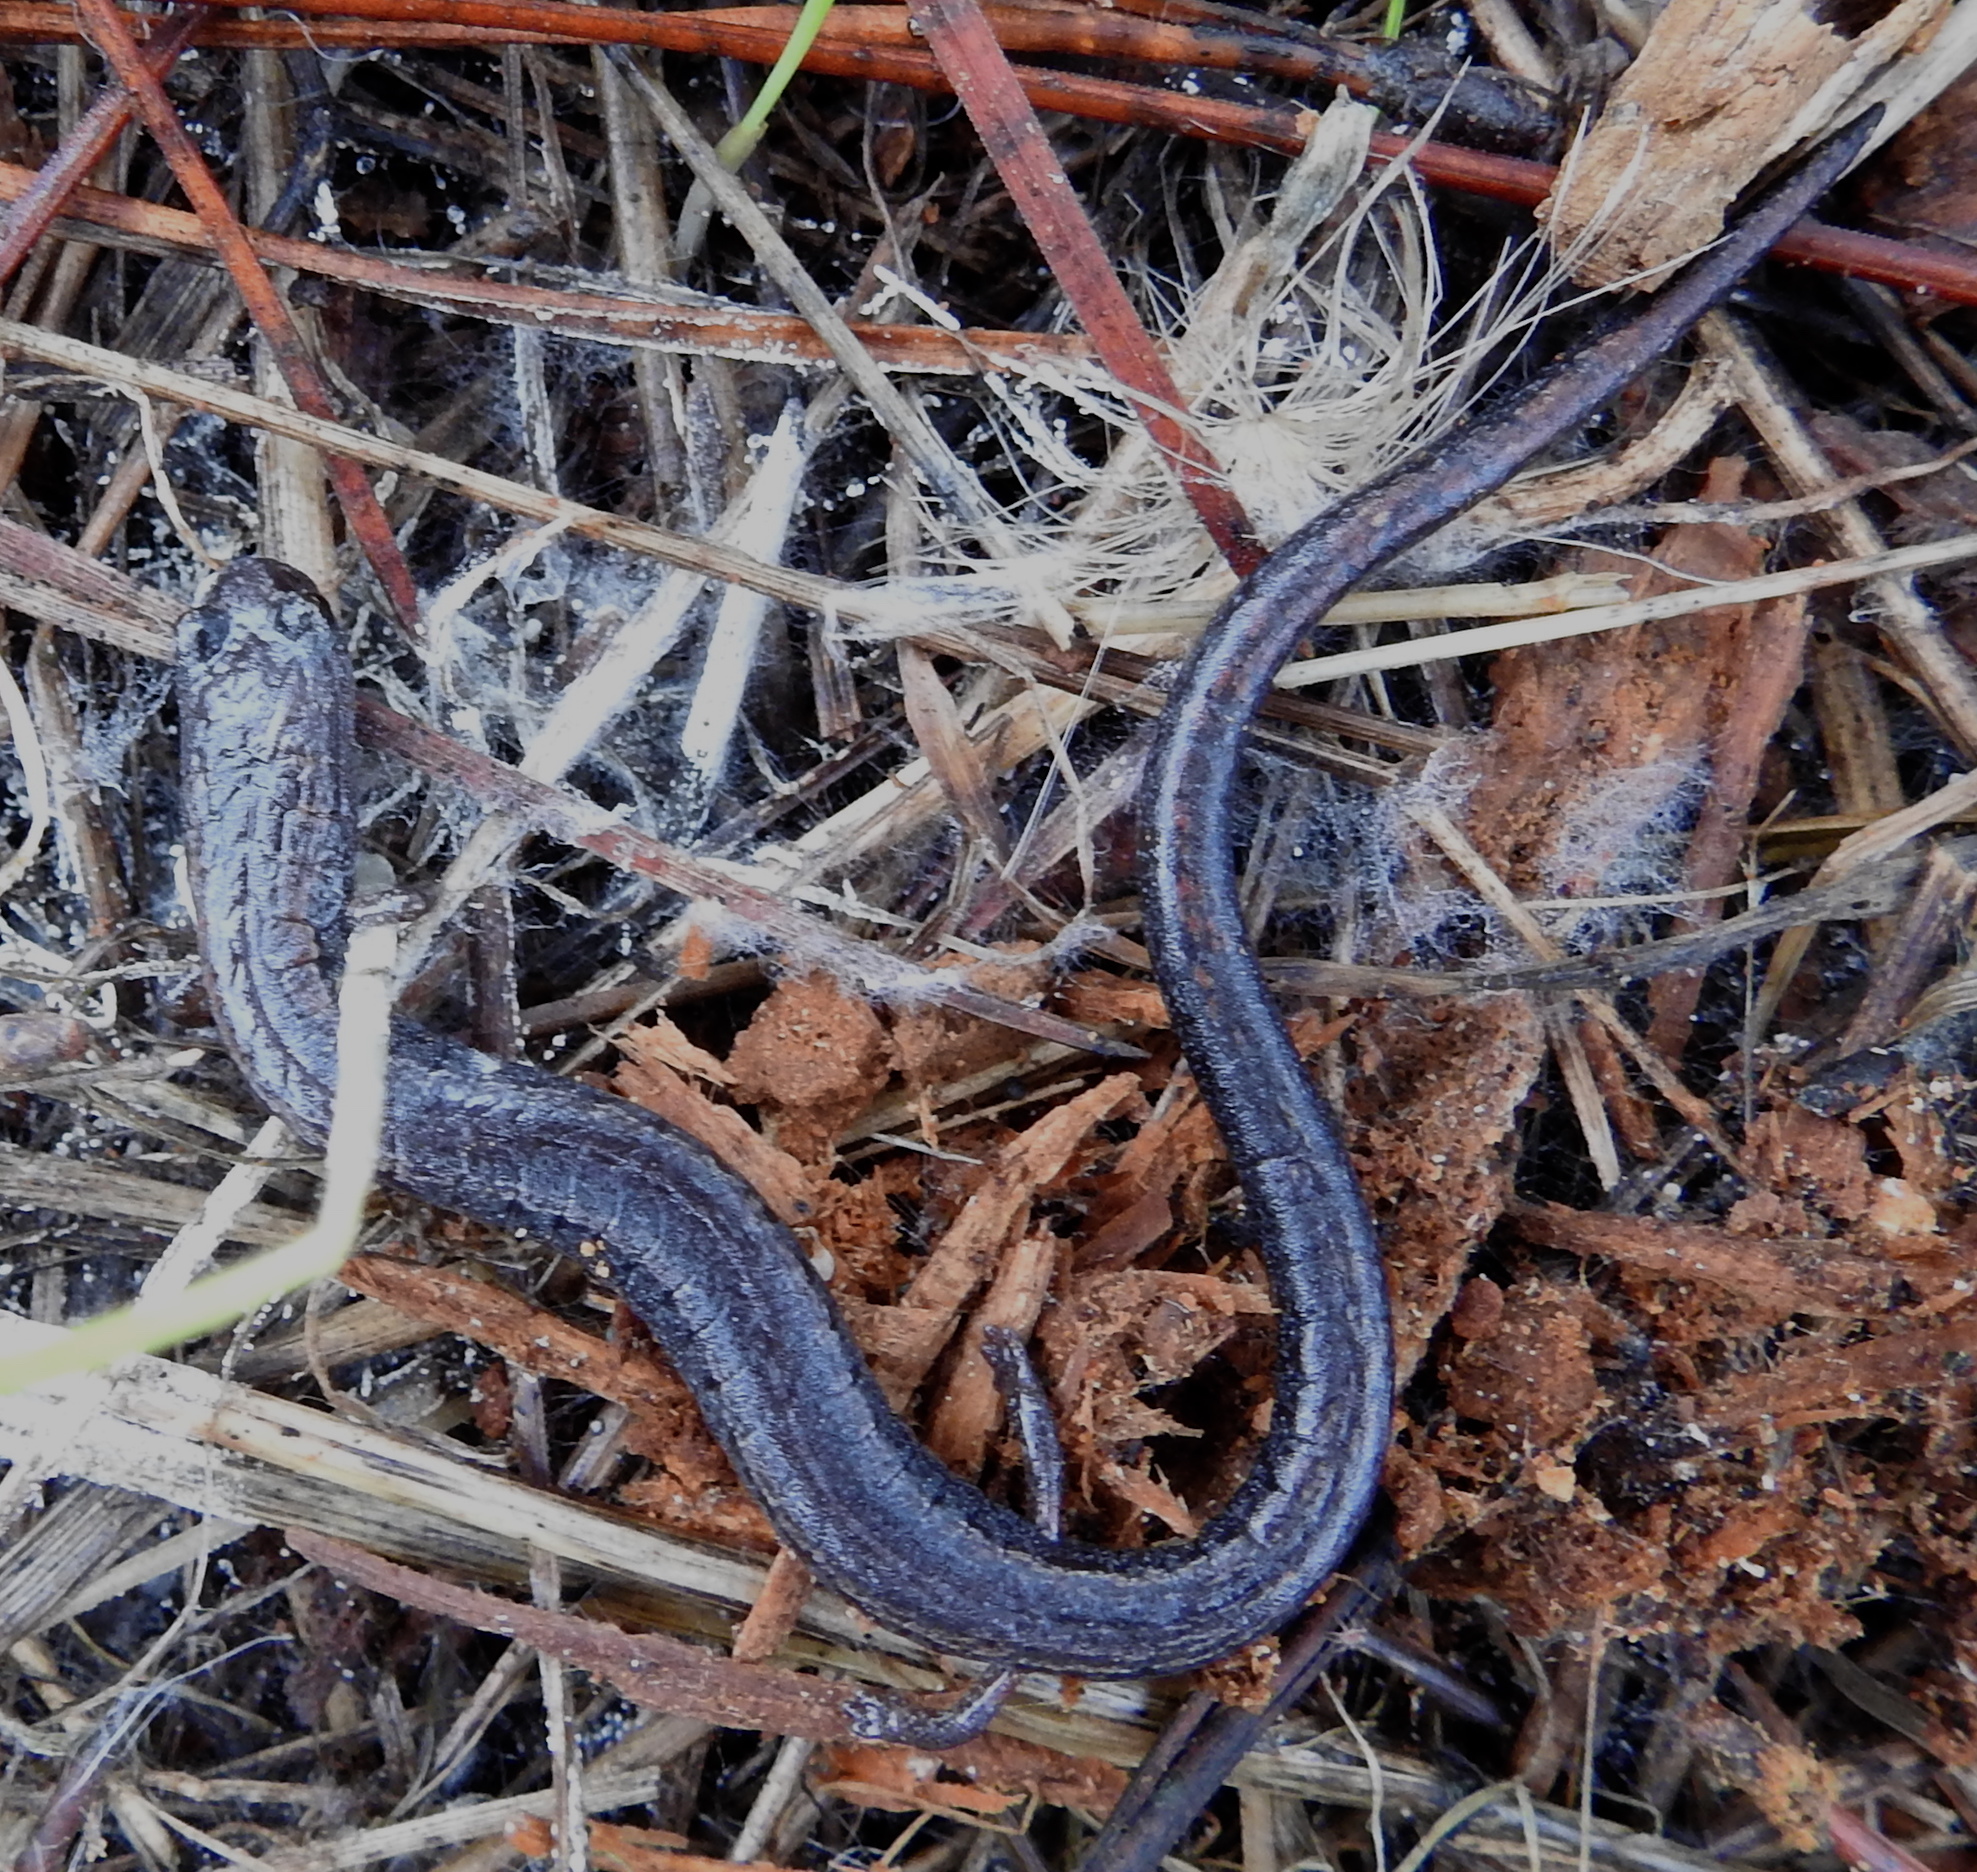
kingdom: Animalia
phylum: Chordata
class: Amphibia
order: Caudata
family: Plethodontidae
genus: Batrachoseps
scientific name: Batrachoseps attenuatus
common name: California slender salamander
